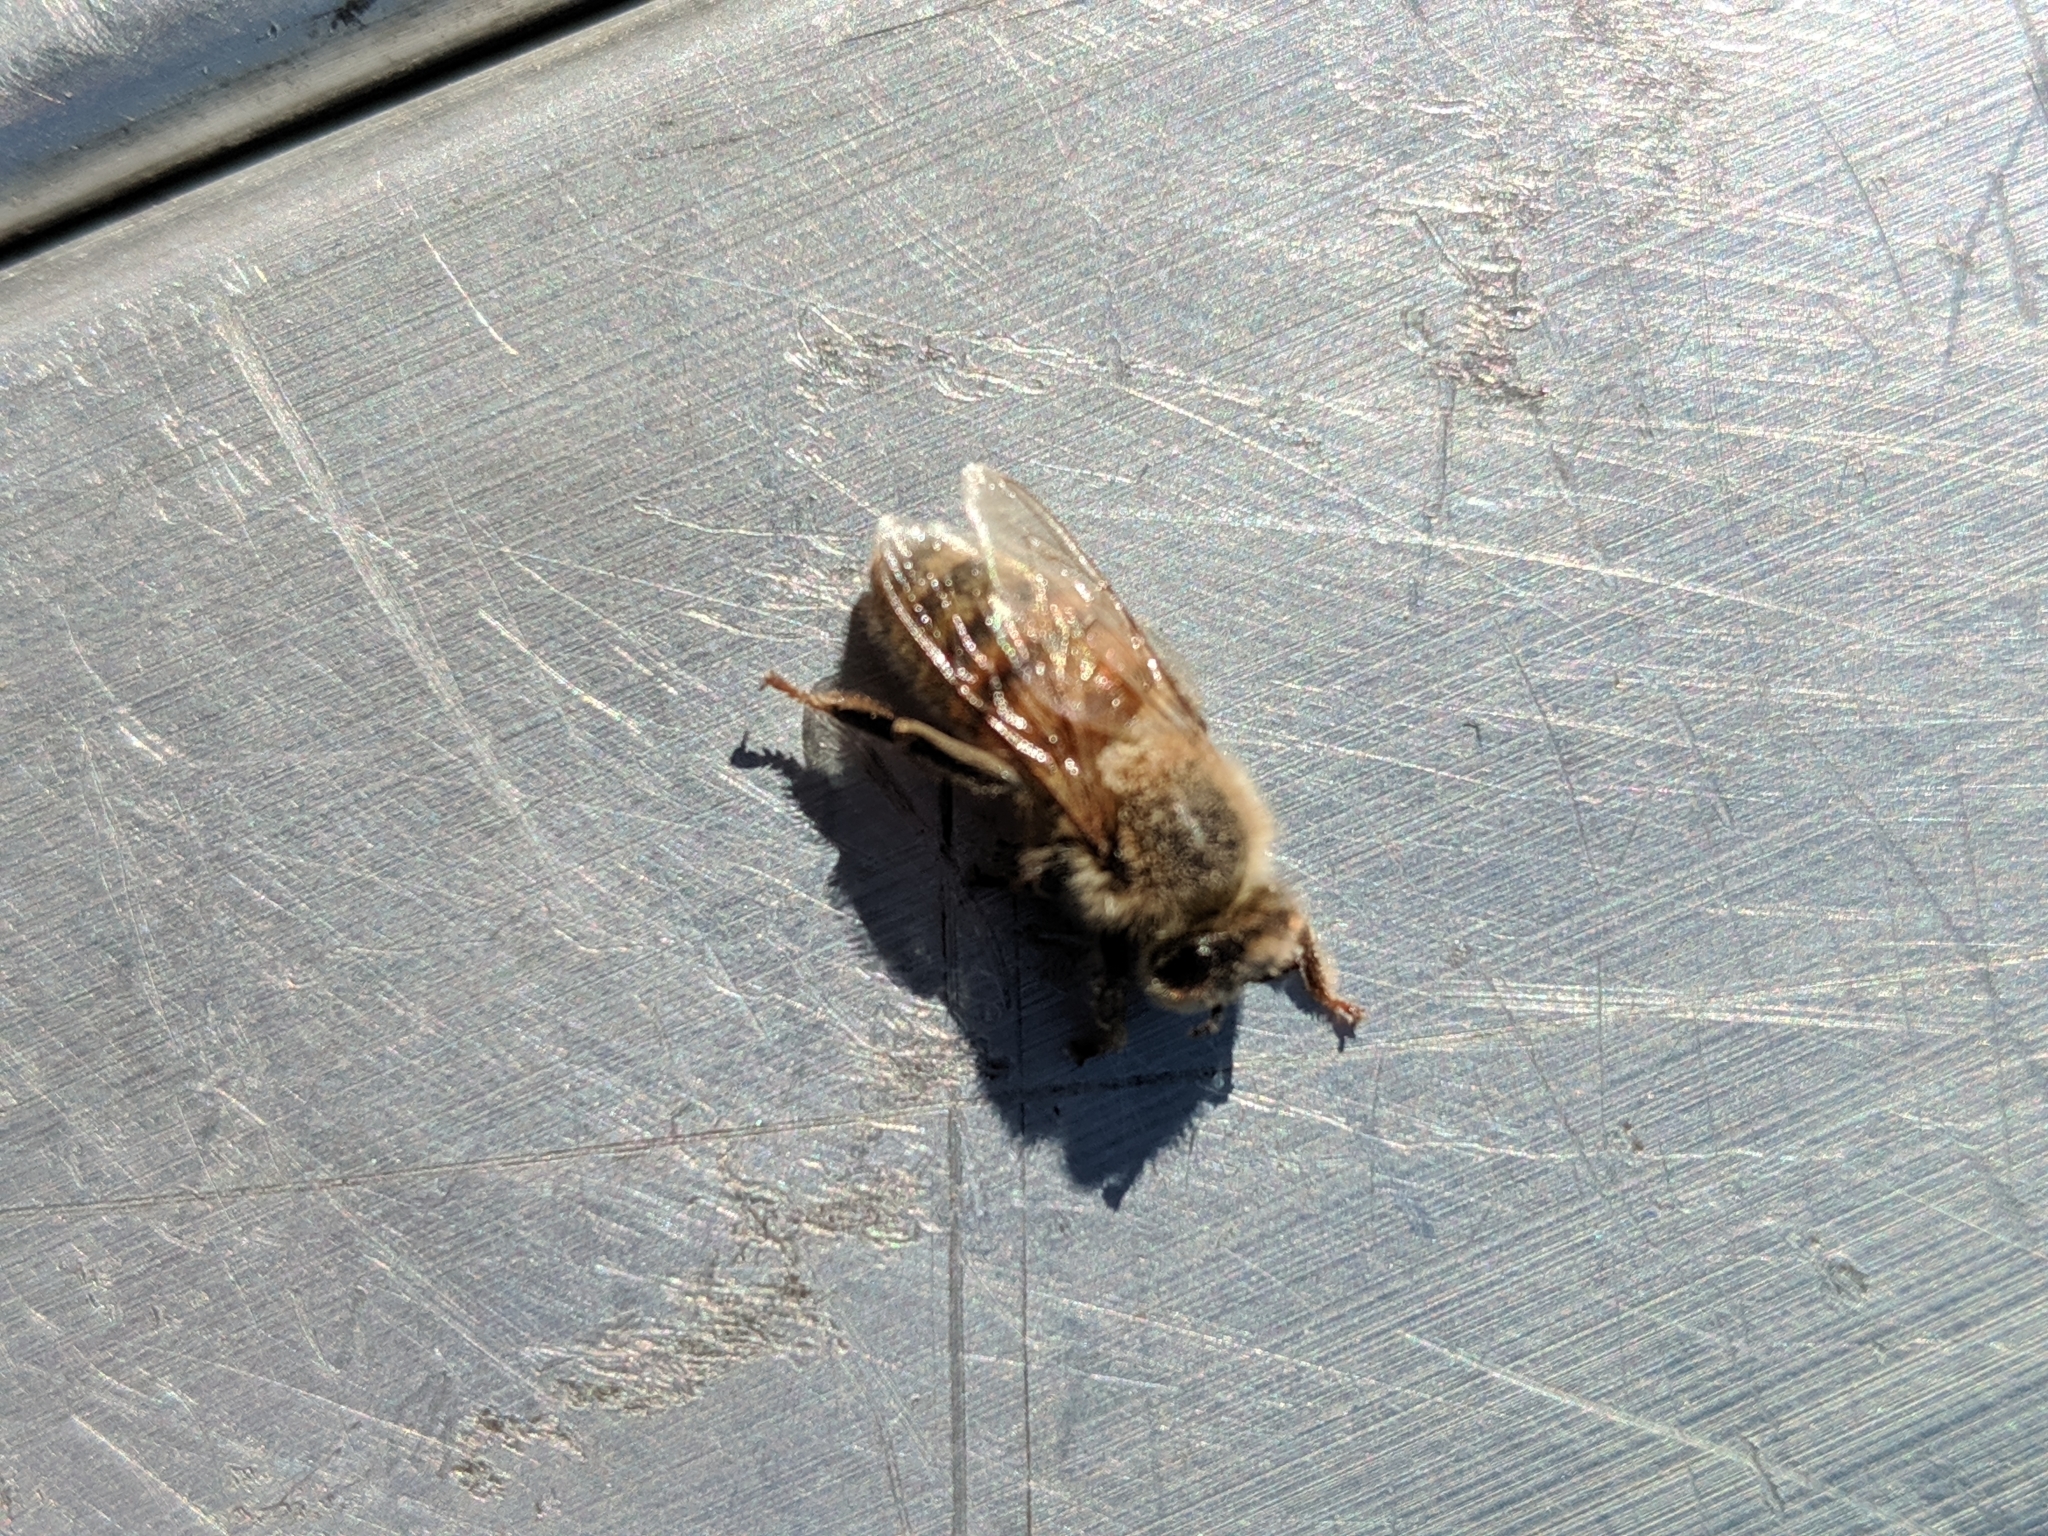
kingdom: Animalia
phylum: Arthropoda
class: Insecta
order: Hymenoptera
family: Apidae
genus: Apis
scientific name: Apis mellifera
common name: Honey bee
